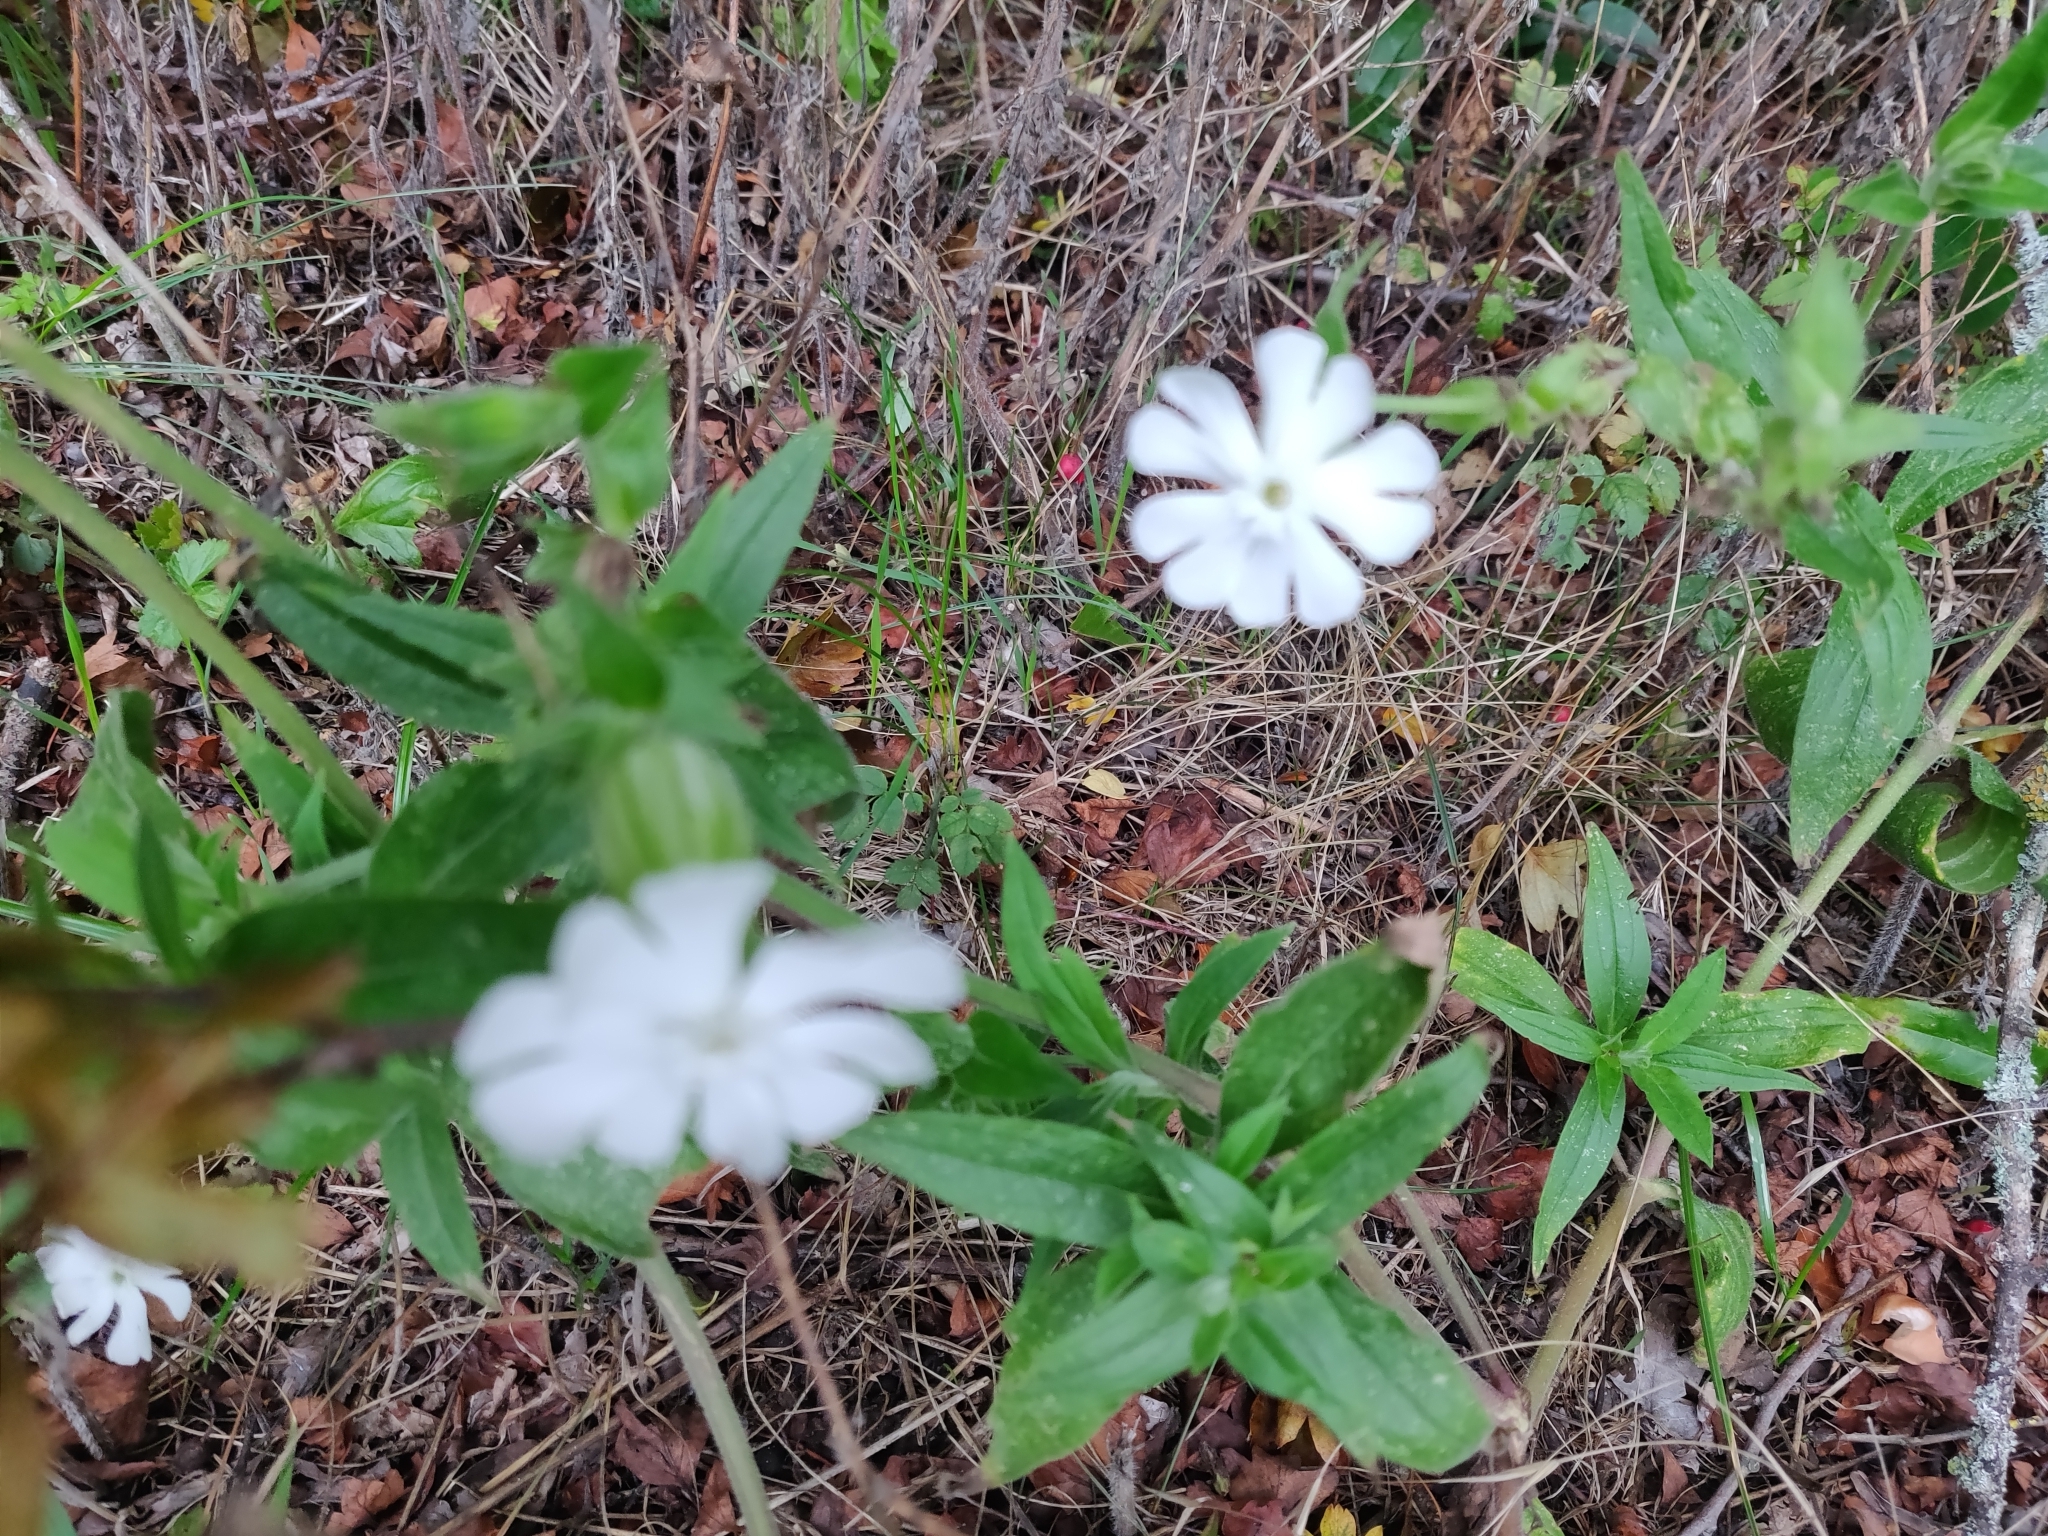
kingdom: Plantae
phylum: Tracheophyta
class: Magnoliopsida
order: Caryophyllales
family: Caryophyllaceae
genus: Silene
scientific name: Silene latifolia
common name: White campion
